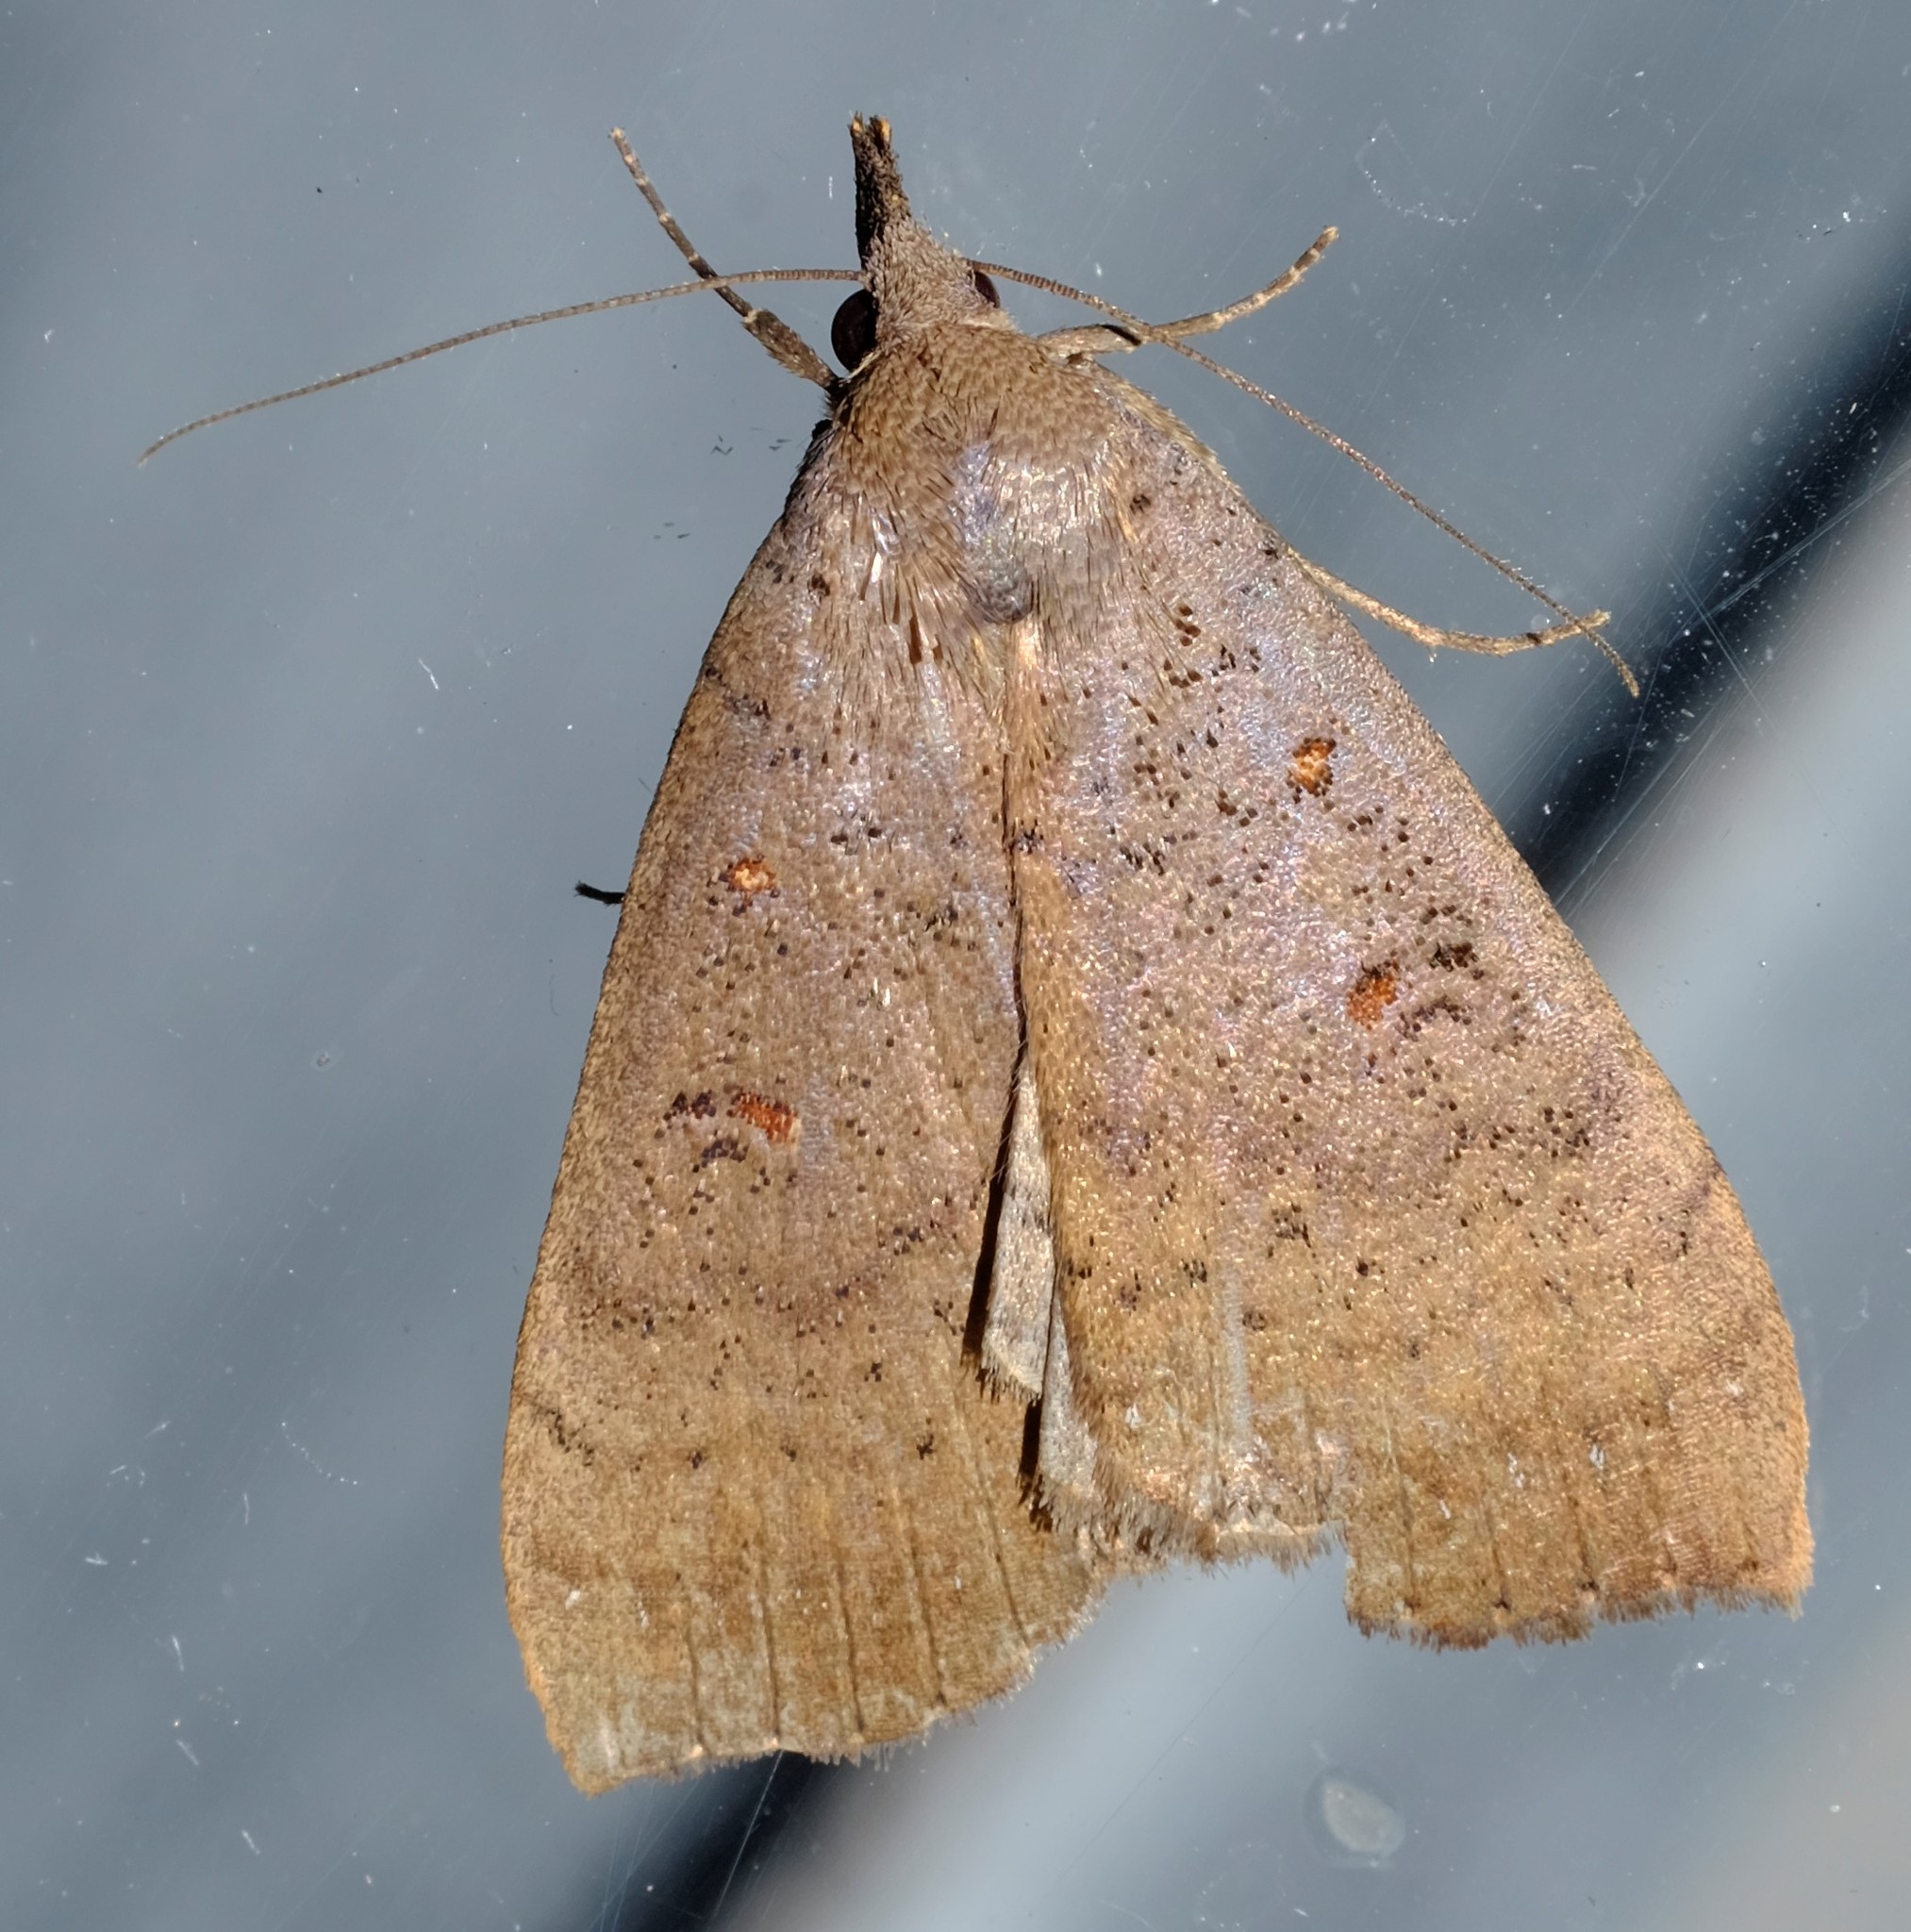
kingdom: Animalia
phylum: Arthropoda
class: Insecta
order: Lepidoptera
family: Erebidae
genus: Rhapsa
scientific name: Rhapsa suscitatalis
